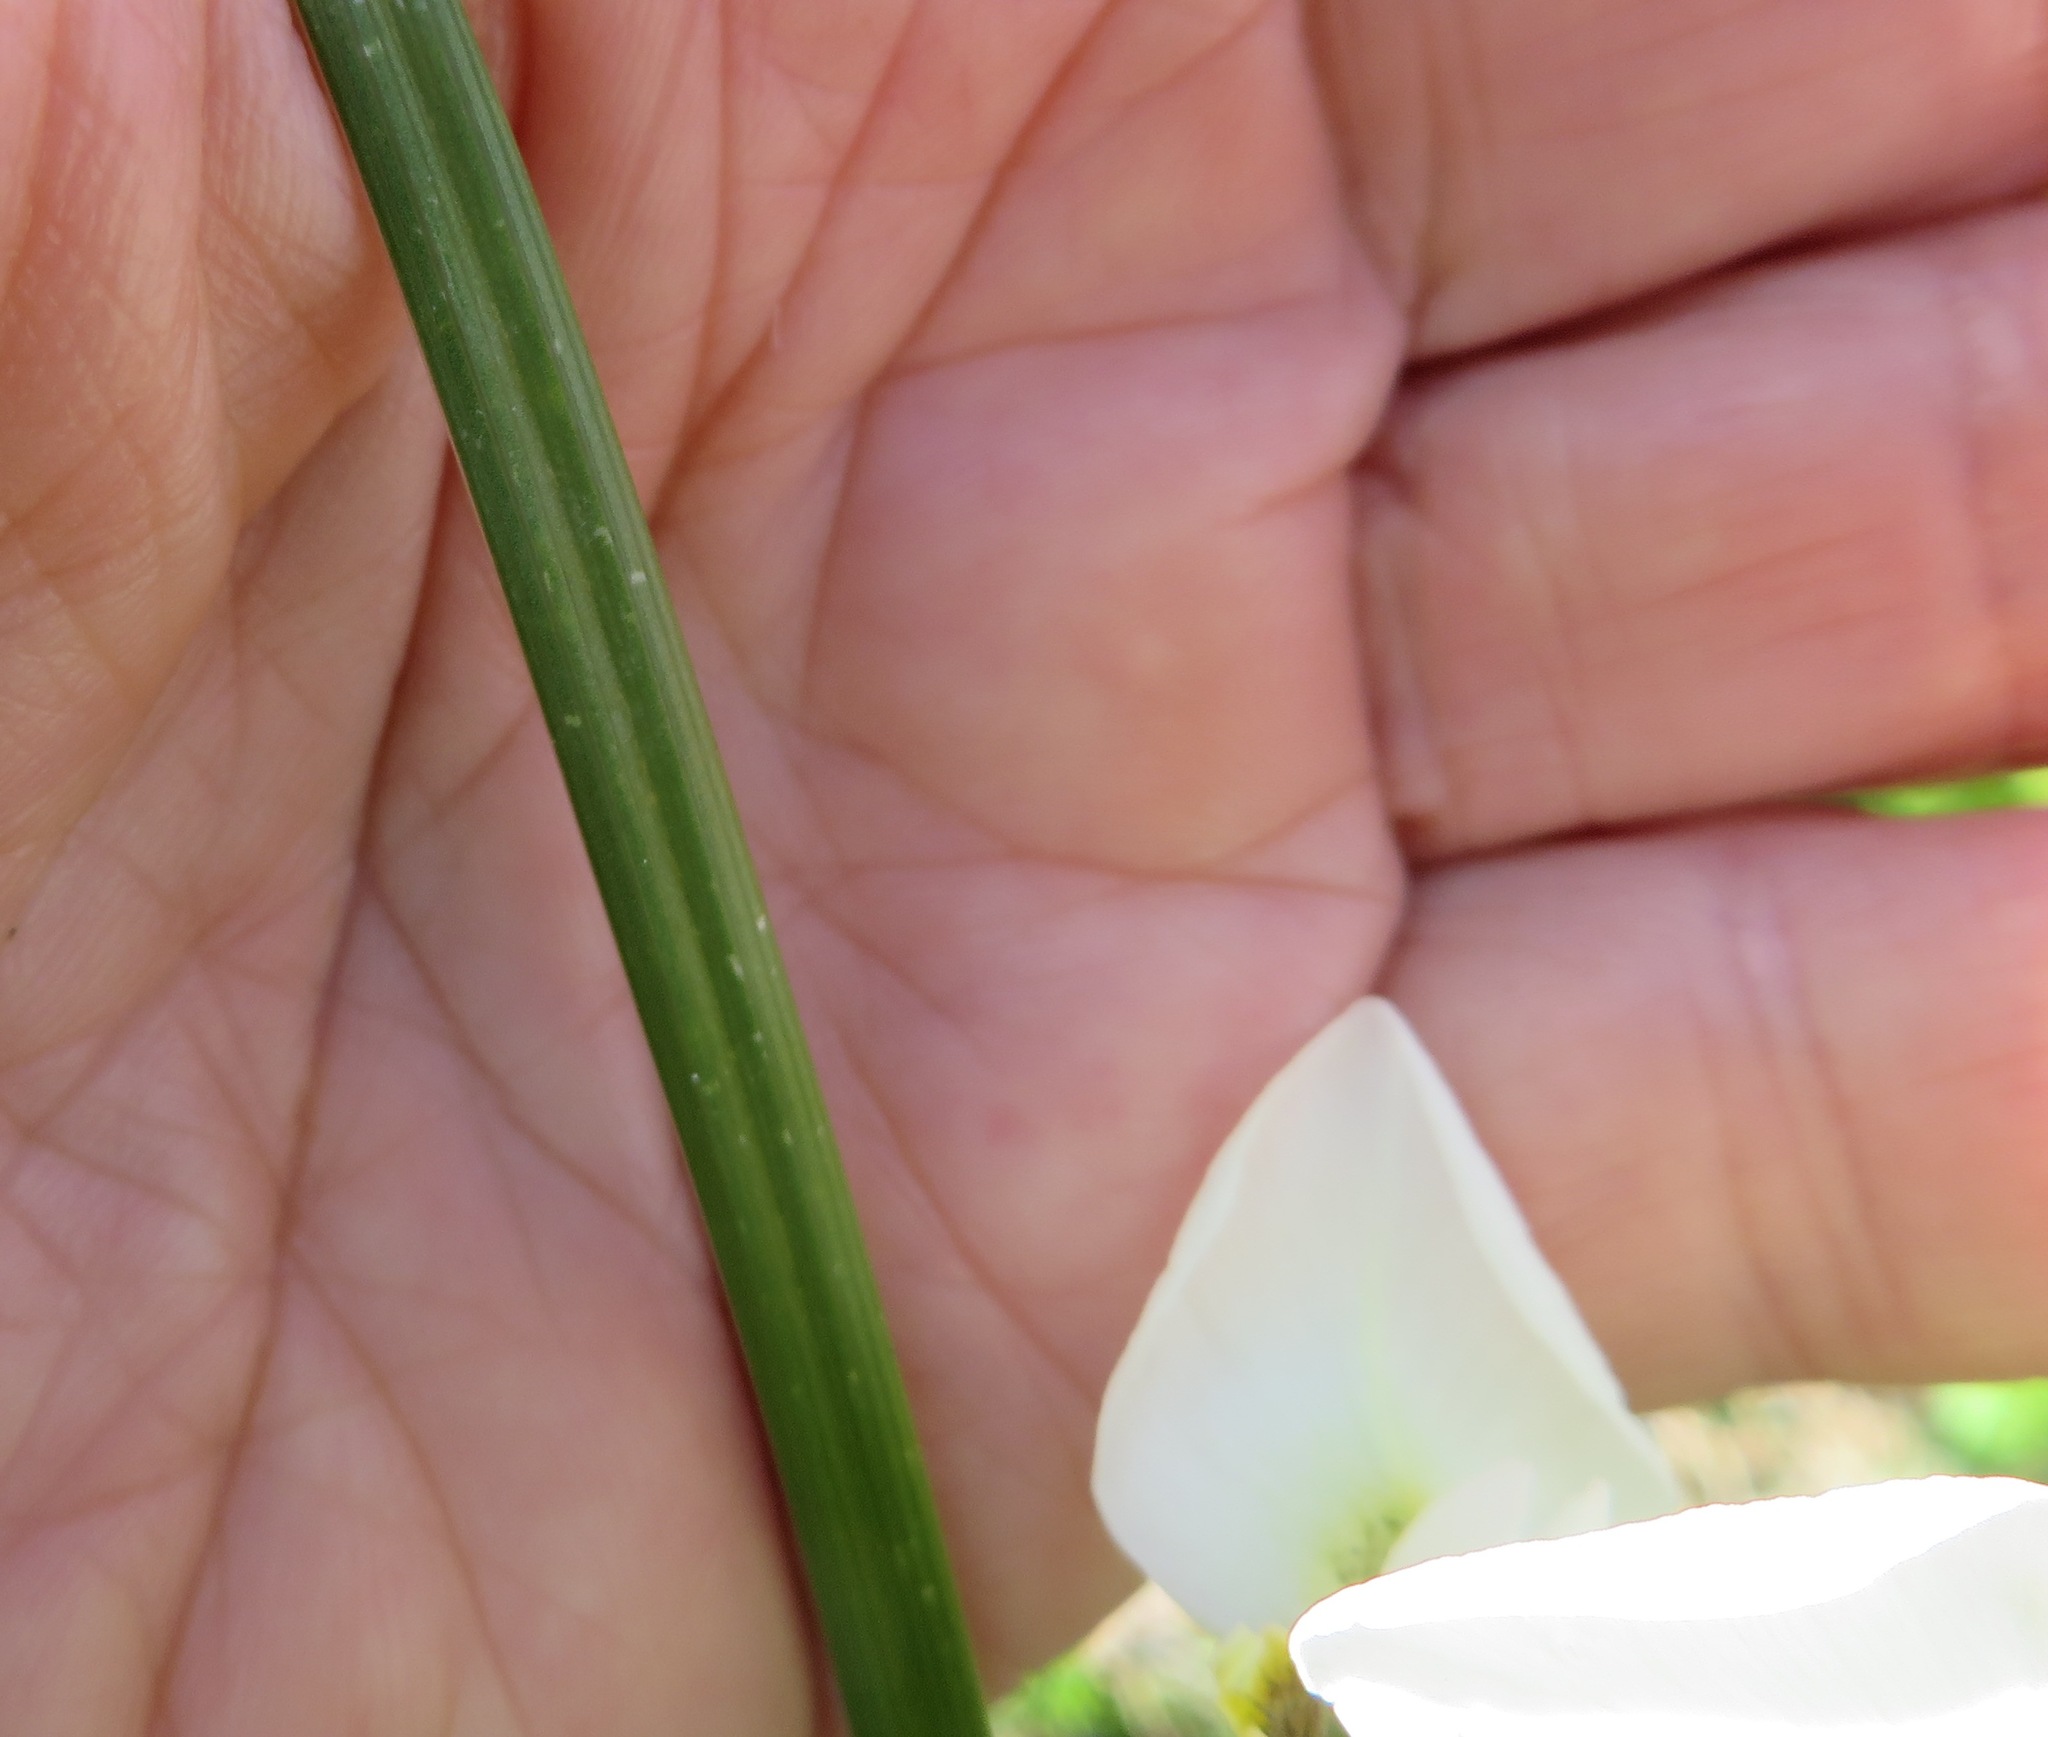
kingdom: Plantae
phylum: Tracheophyta
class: Liliopsida
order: Asparagales
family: Iridaceae
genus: Moraea
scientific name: Moraea tricuspidata
